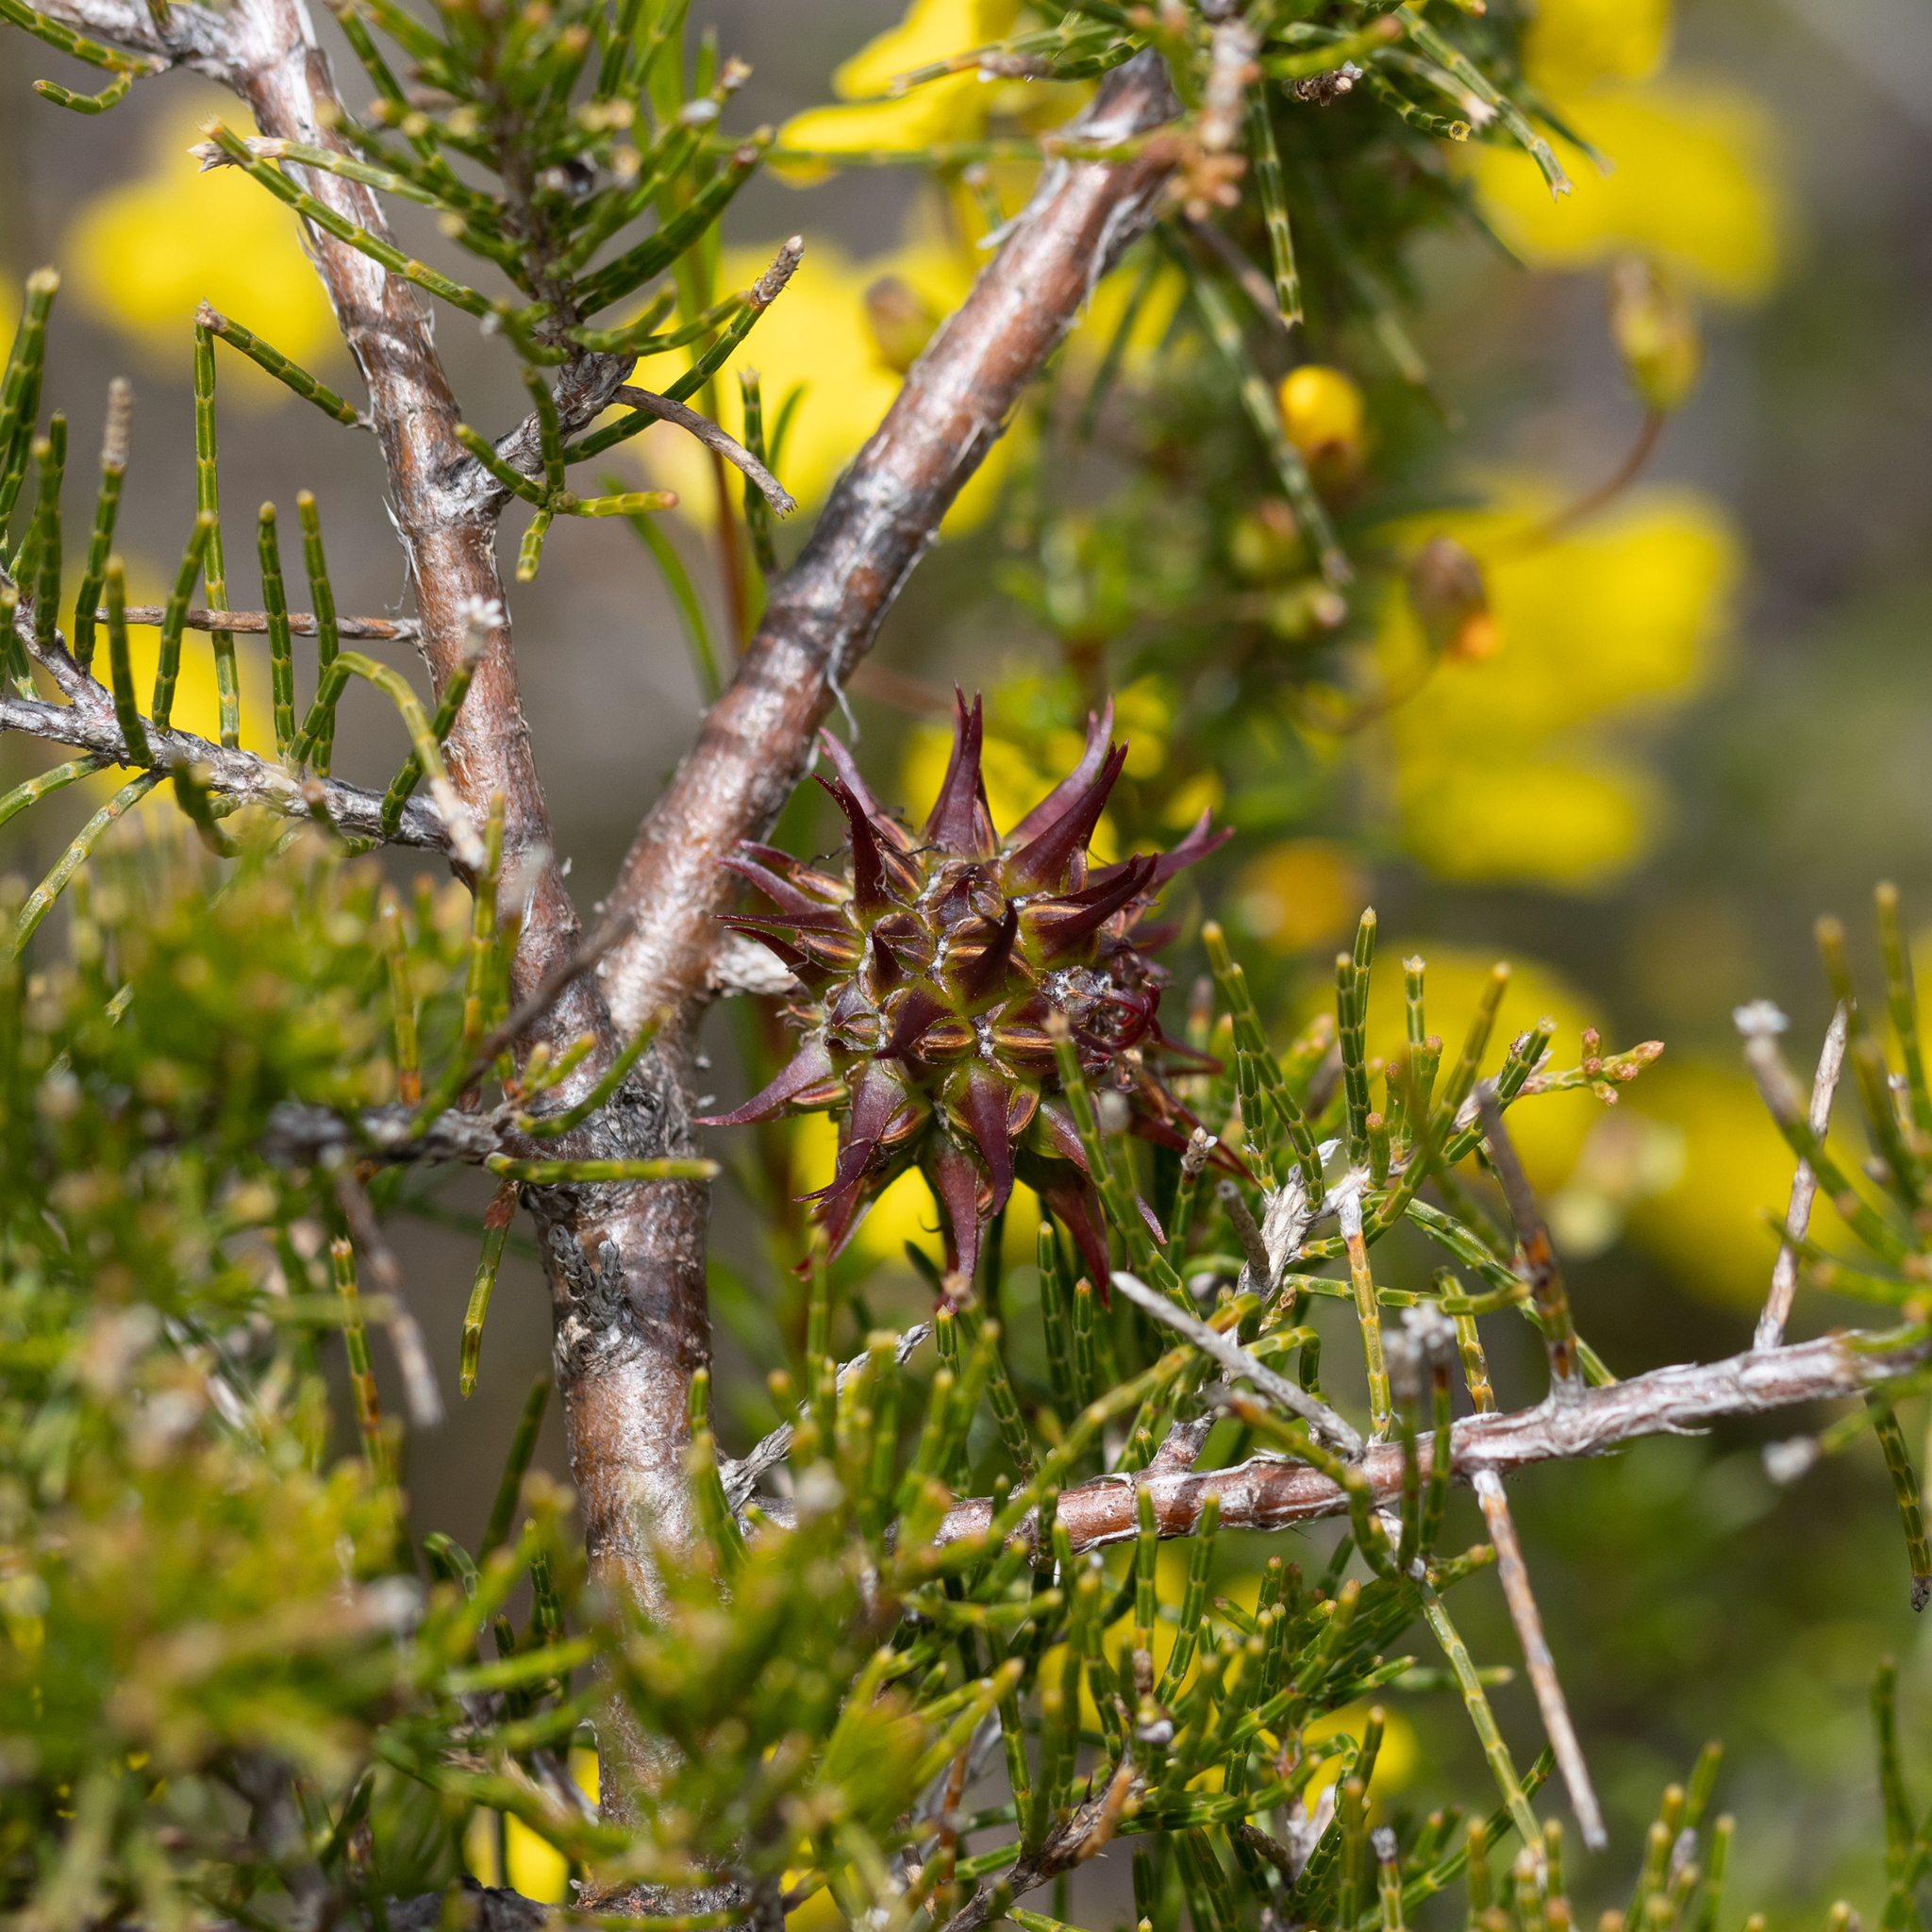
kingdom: Plantae
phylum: Tracheophyta
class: Magnoliopsida
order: Fagales
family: Casuarinaceae
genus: Allocasuarina
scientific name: Allocasuarina thuyoides
